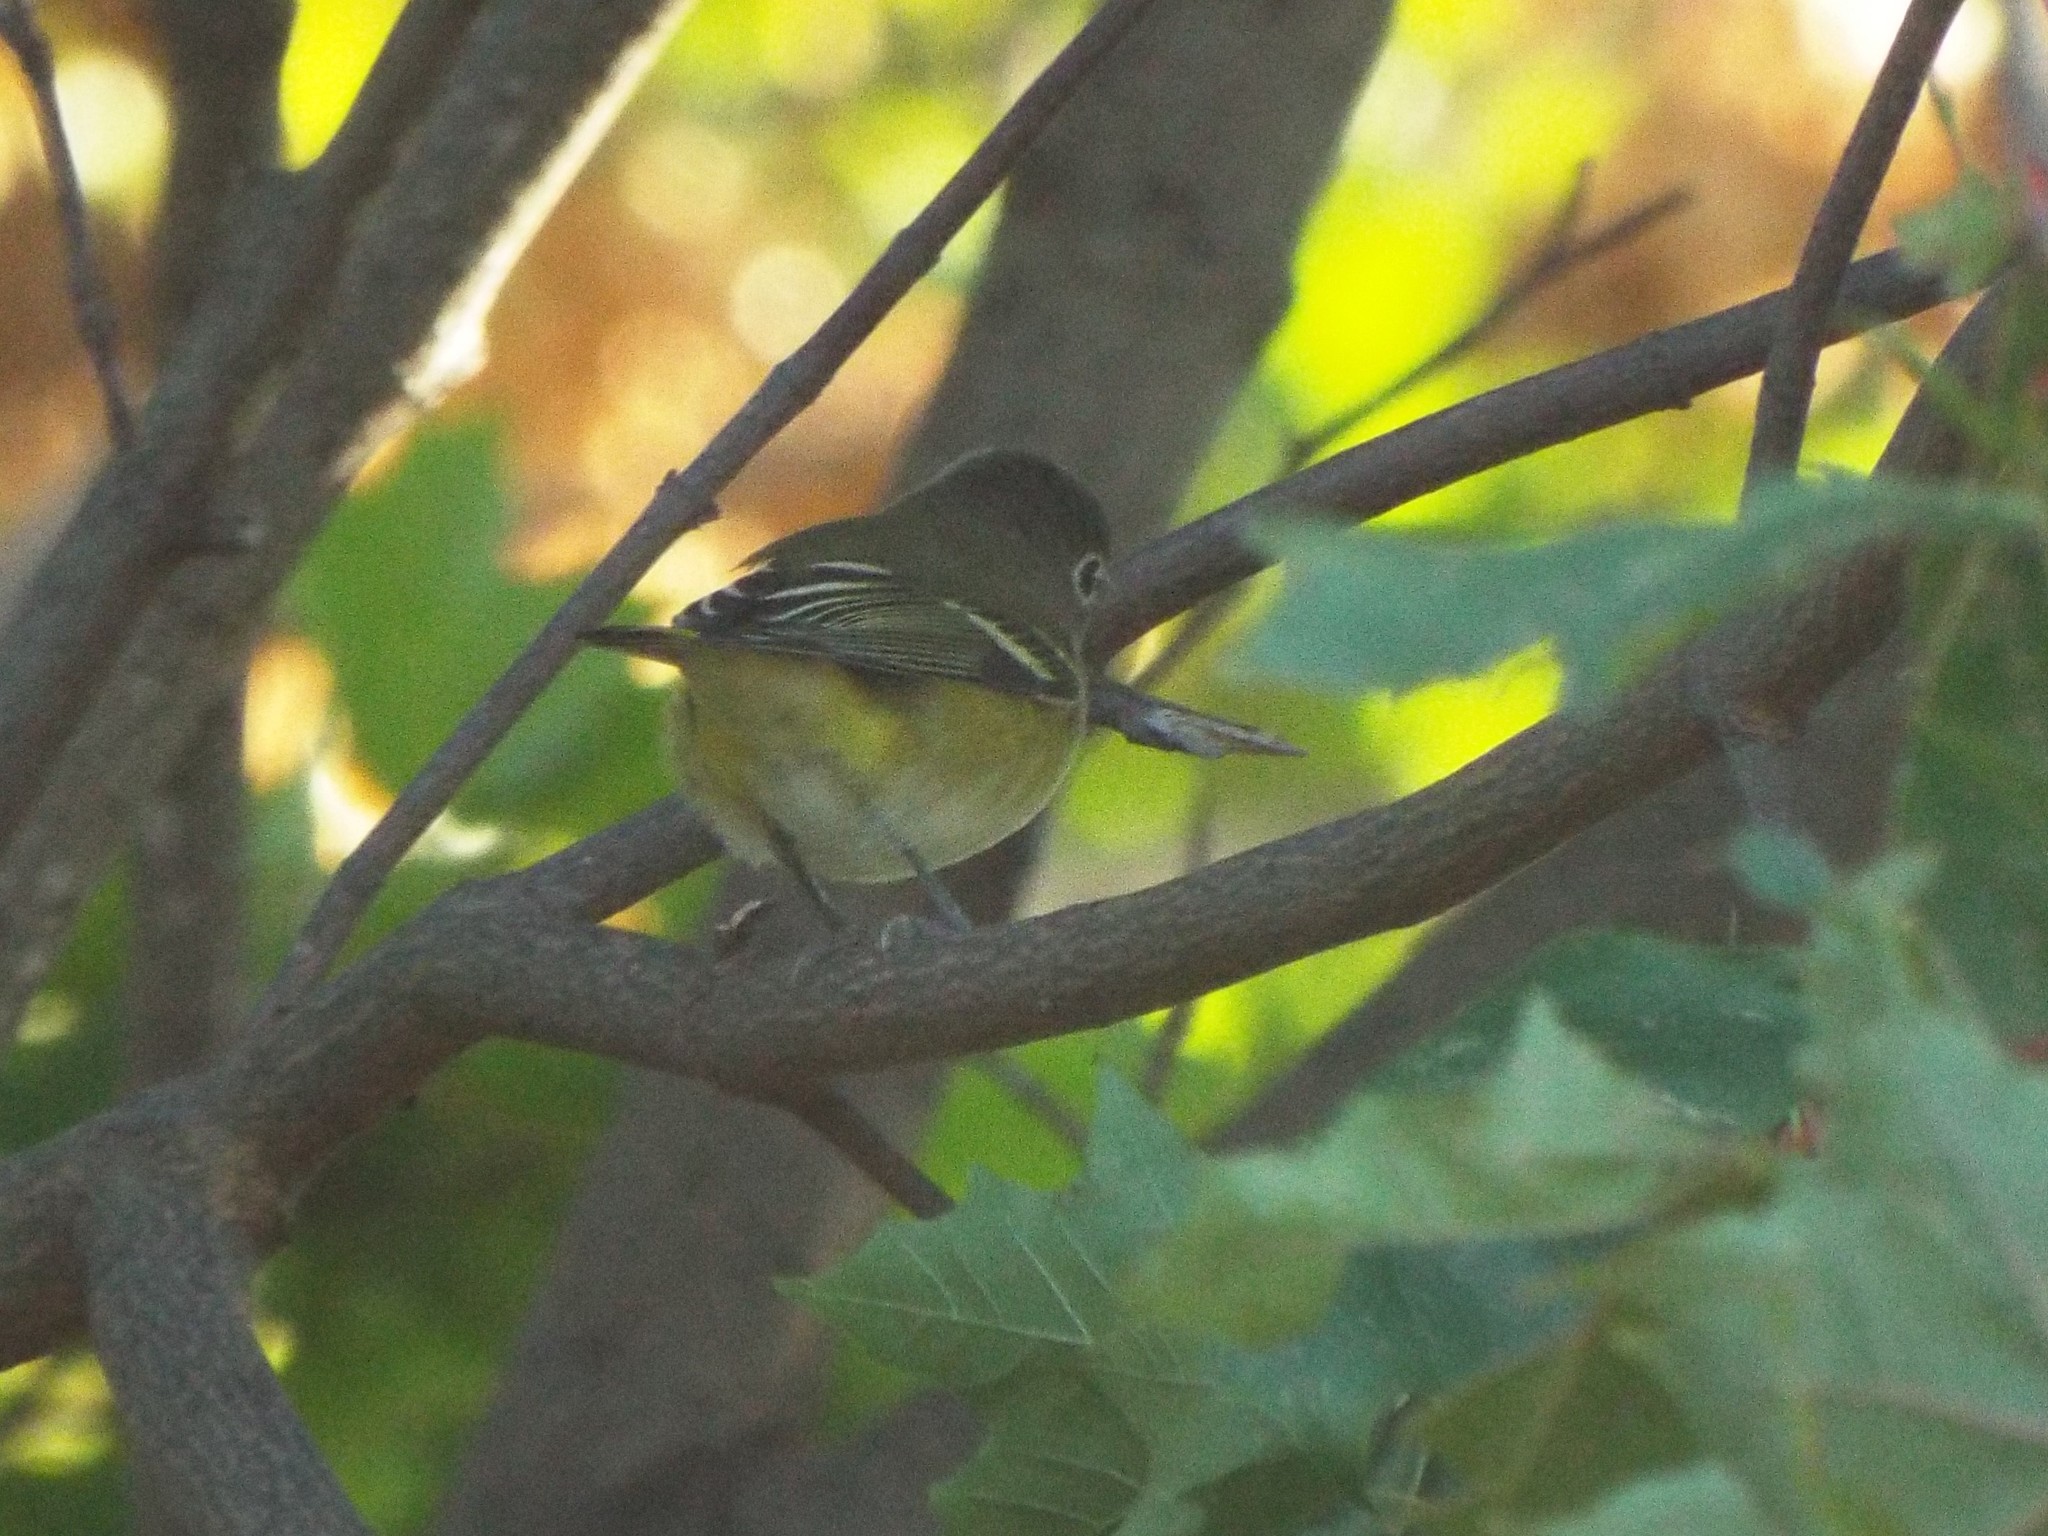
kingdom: Animalia
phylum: Chordata
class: Aves
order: Passeriformes
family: Vireonidae
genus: Vireo
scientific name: Vireo solitarius
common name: Blue-headed vireo
